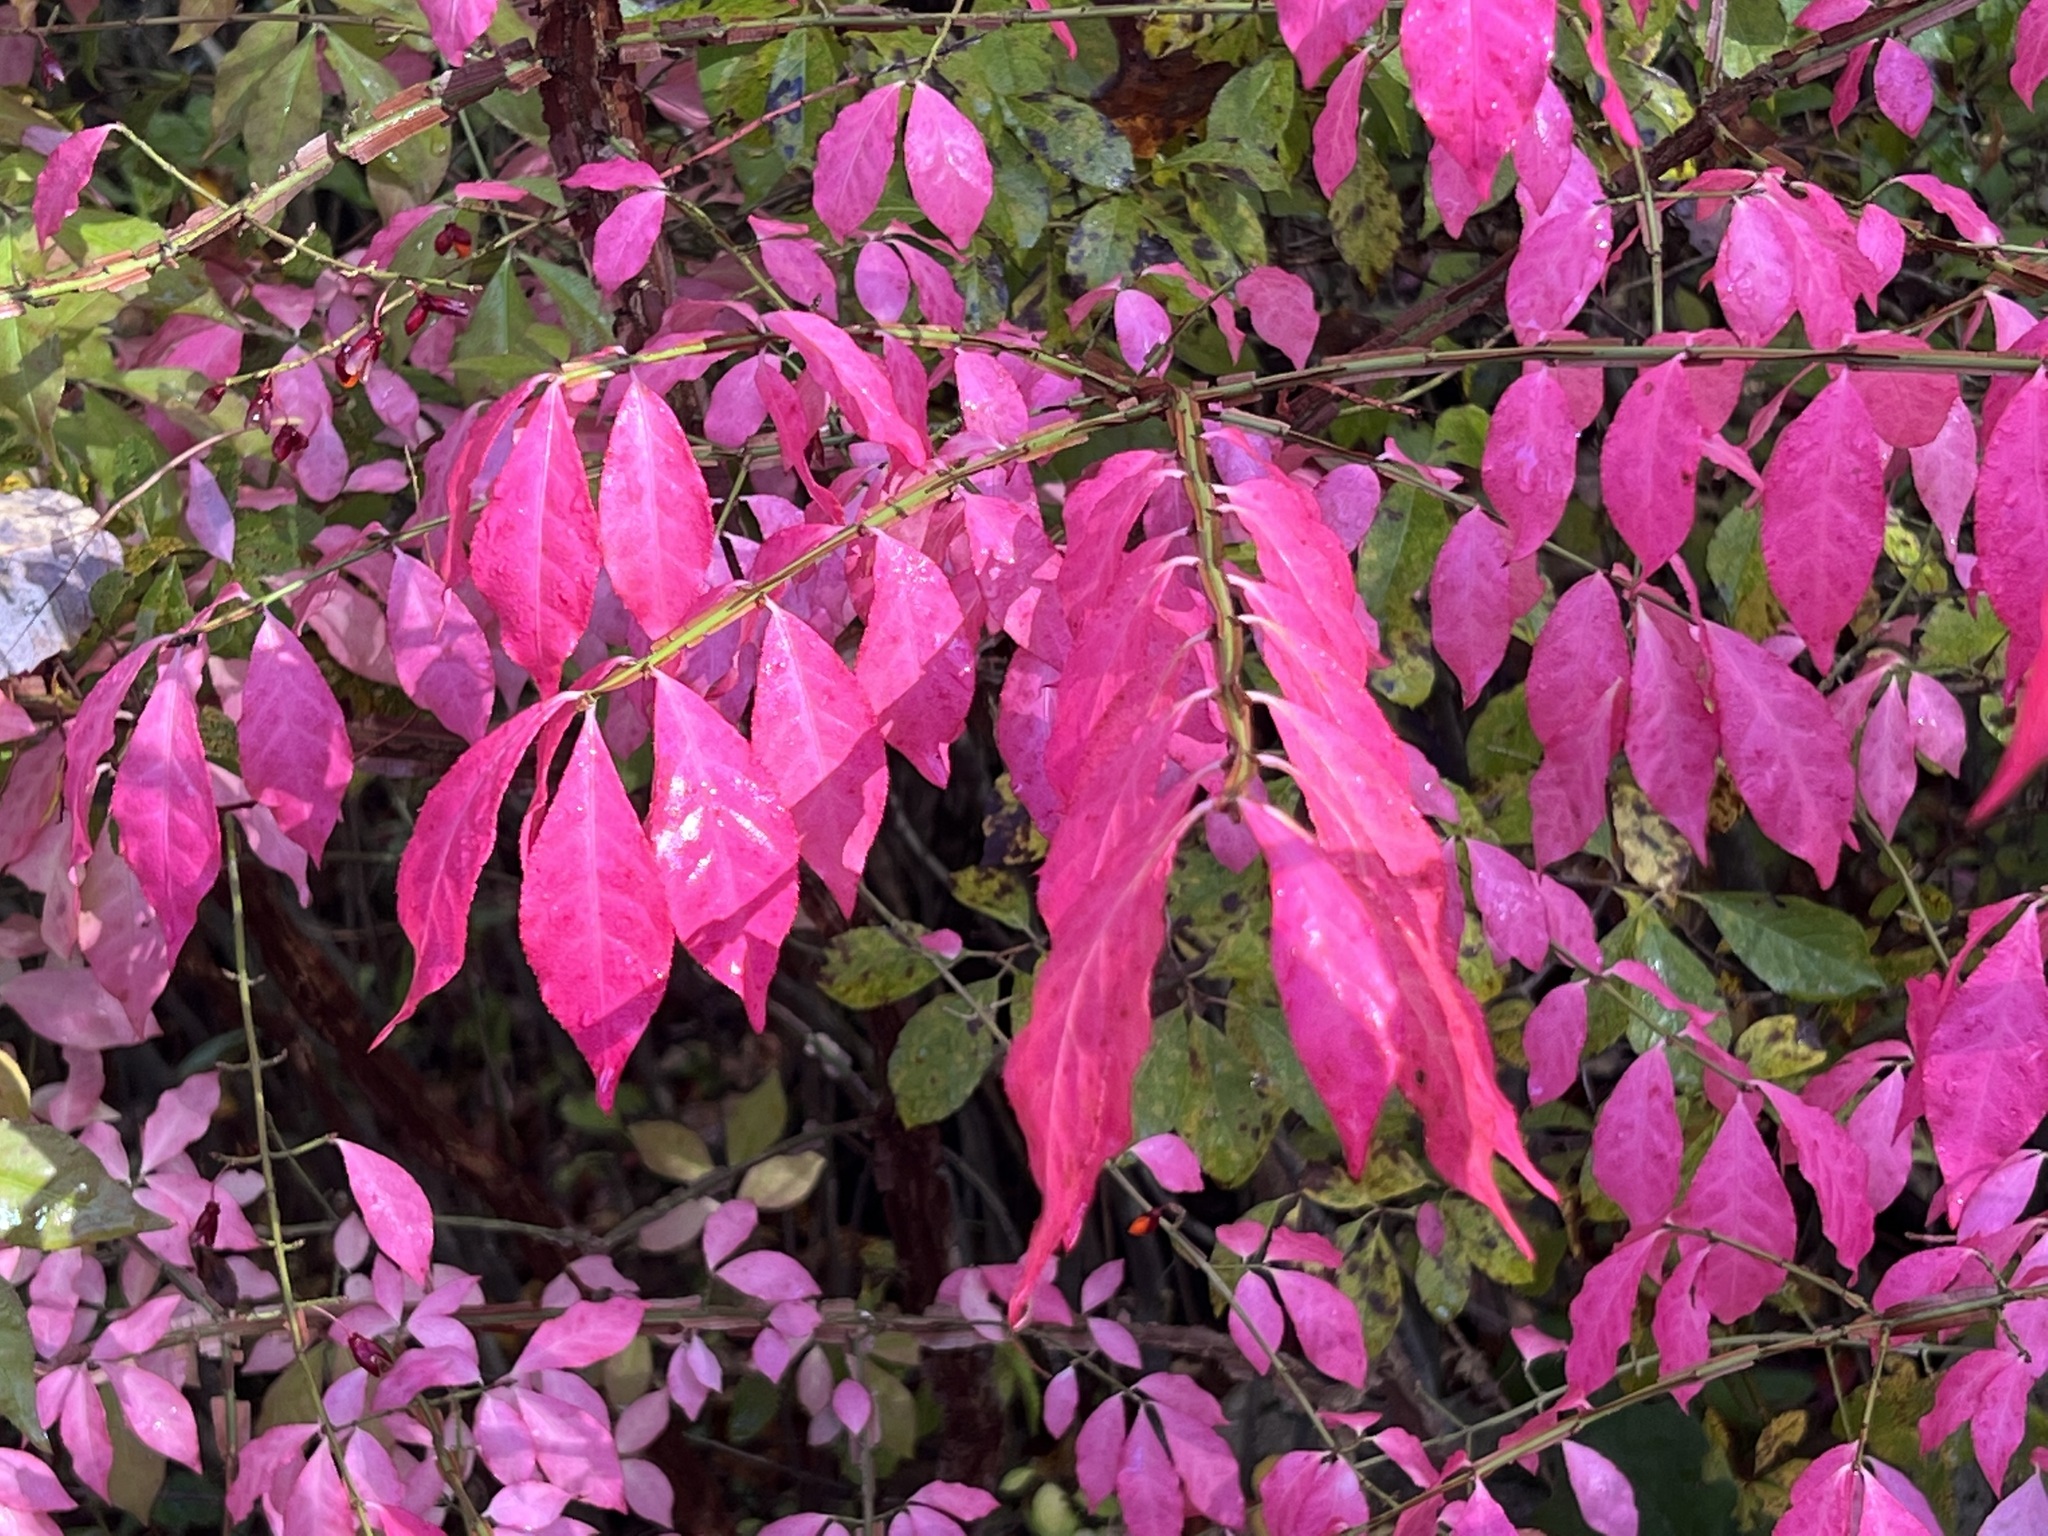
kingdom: Plantae
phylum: Tracheophyta
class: Magnoliopsida
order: Celastrales
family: Celastraceae
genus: Euonymus
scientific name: Euonymus alatus
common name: Winged euonymus
